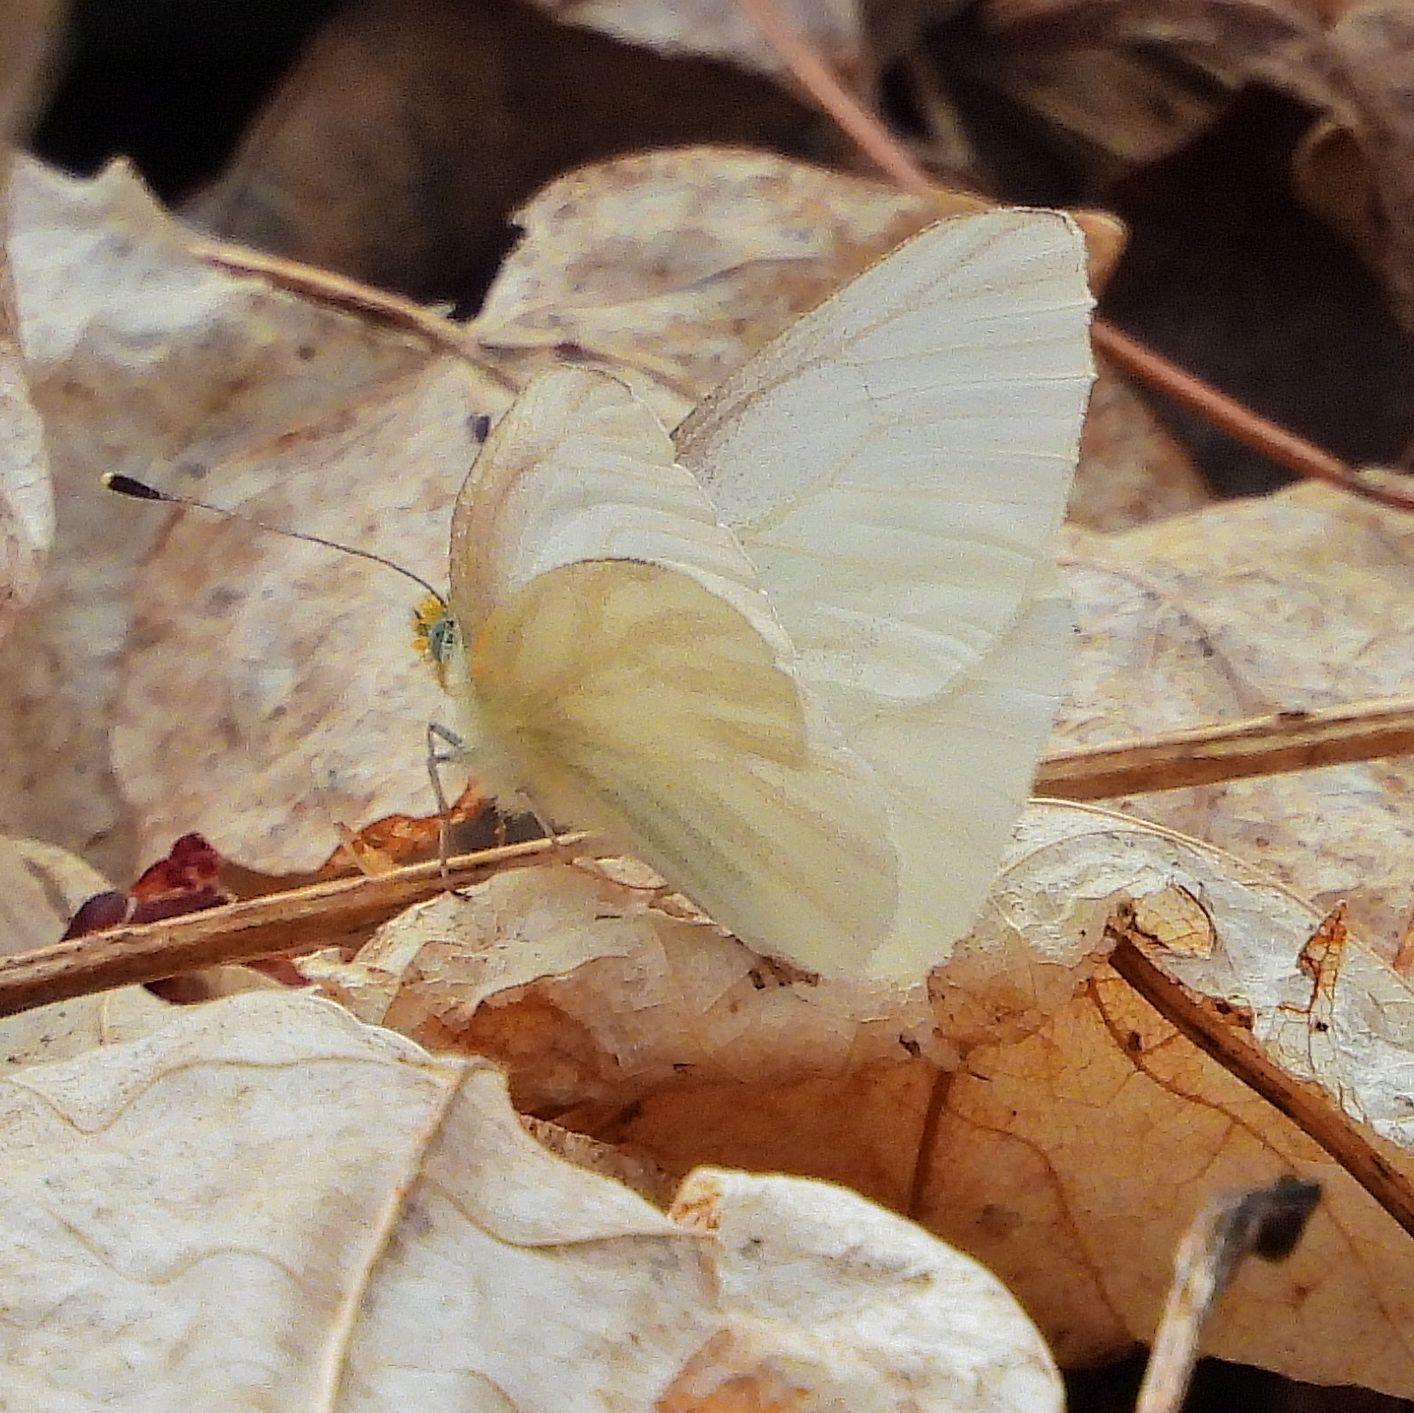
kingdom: Animalia
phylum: Arthropoda
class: Insecta
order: Lepidoptera
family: Pieridae
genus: Pieris
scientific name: Pieris virginiensis
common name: West virginia white
